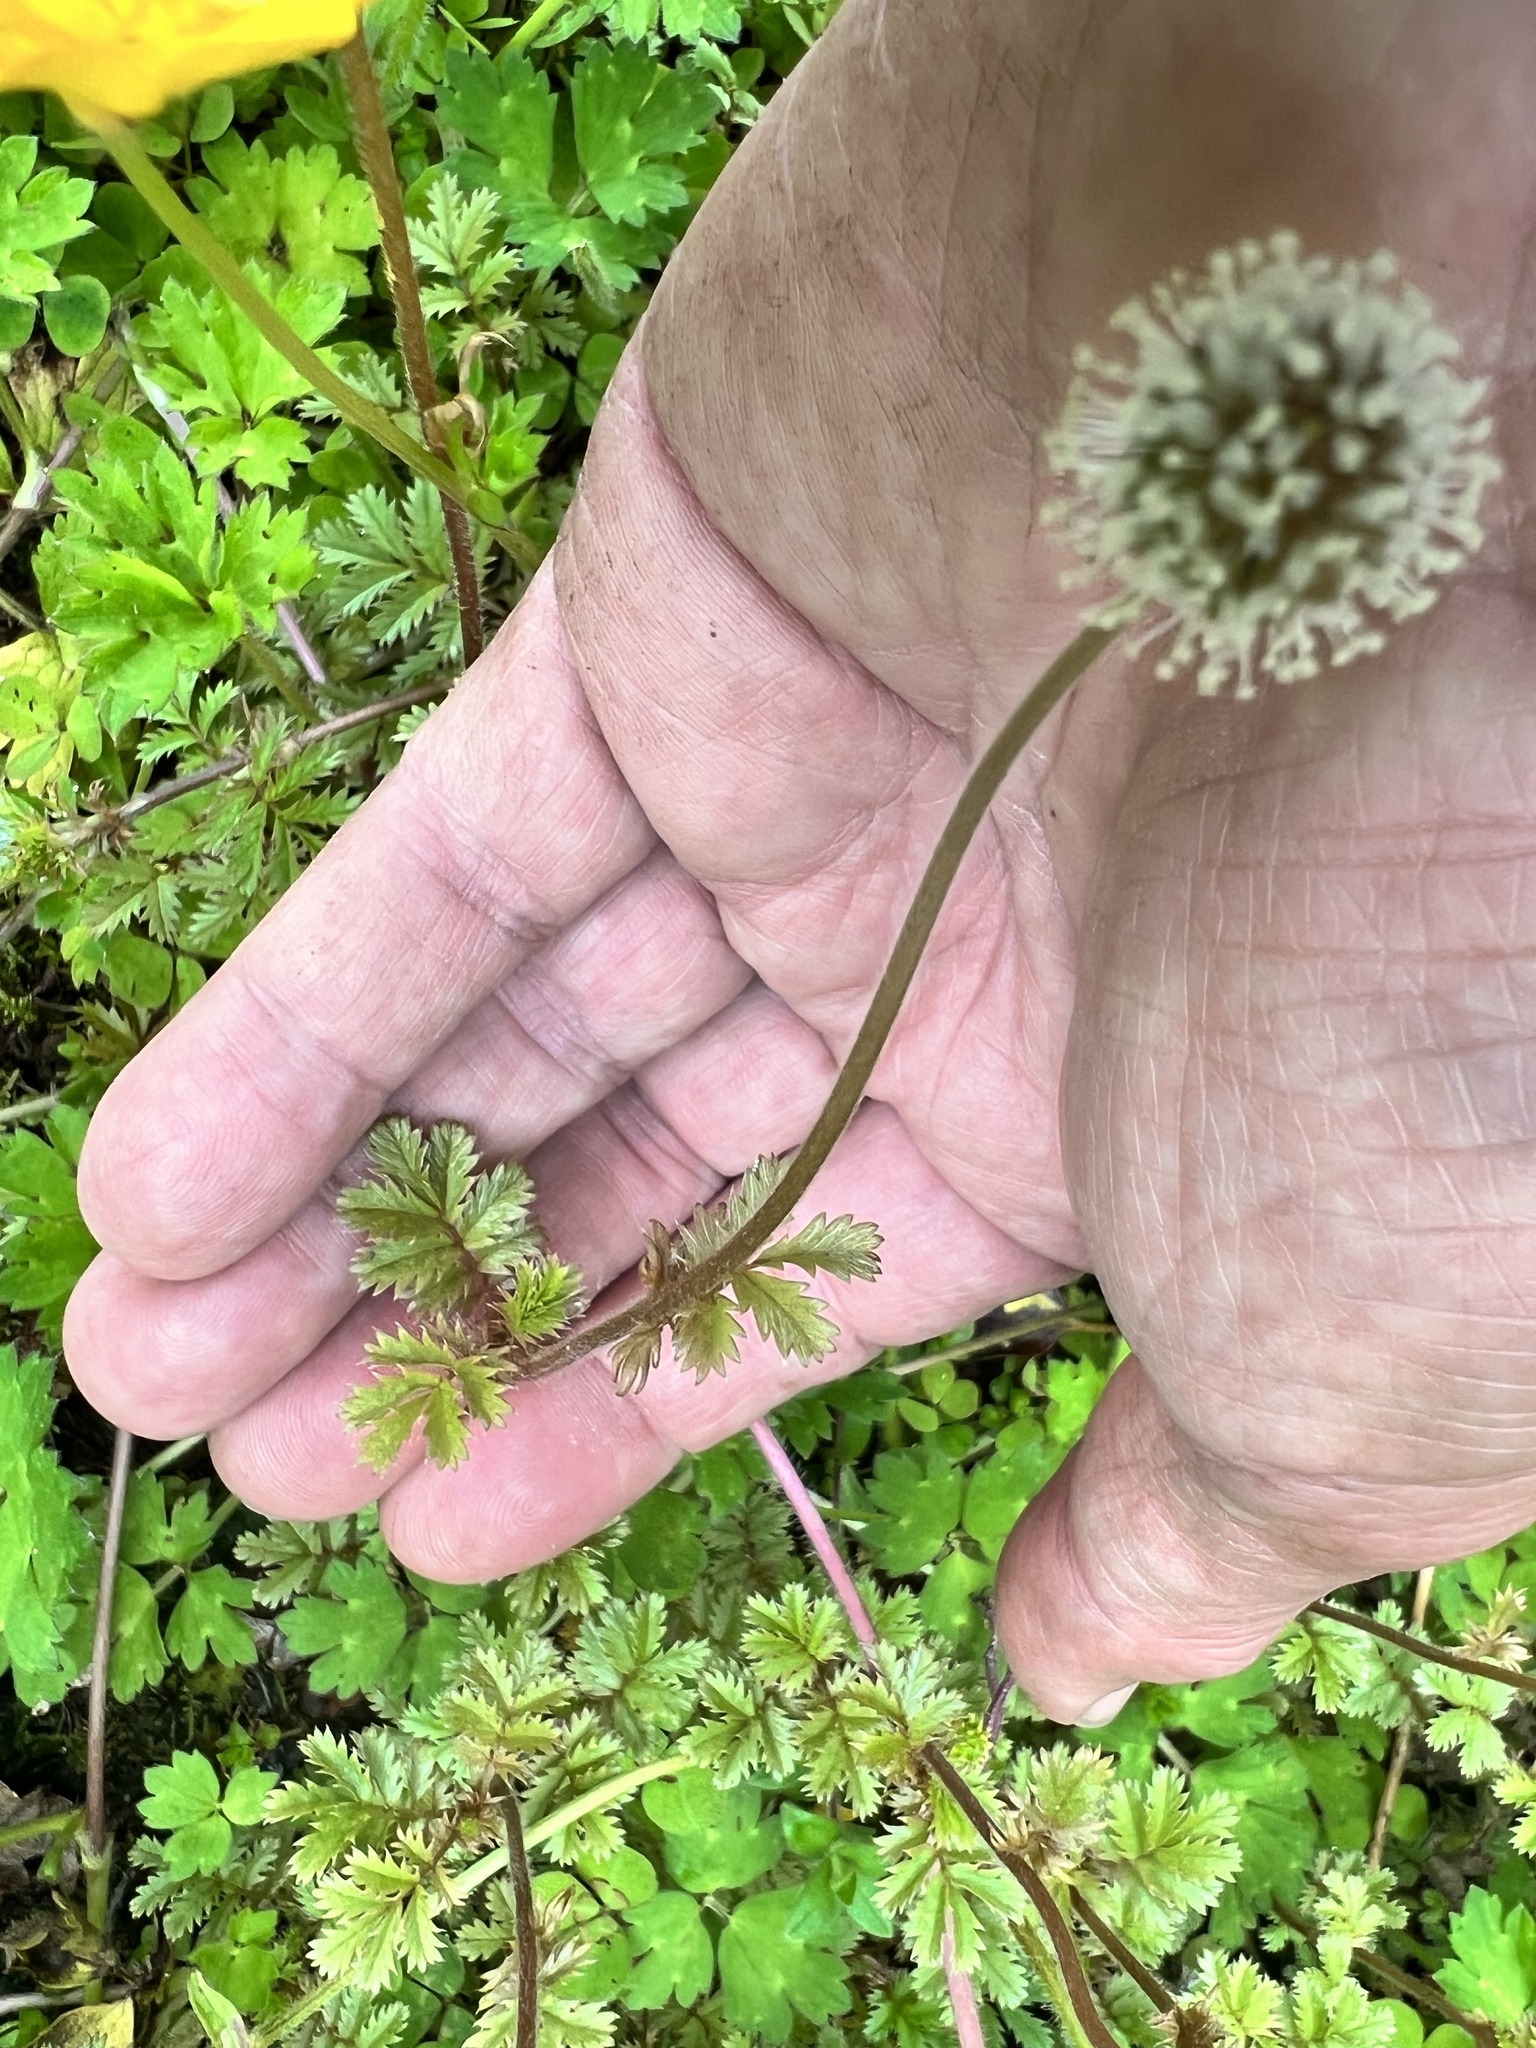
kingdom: Plantae
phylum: Tracheophyta
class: Magnoliopsida
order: Rosales
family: Rosaceae
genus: Acaena
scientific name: Acaena anserinifolia
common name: Bronze pirri-pirri-bur
